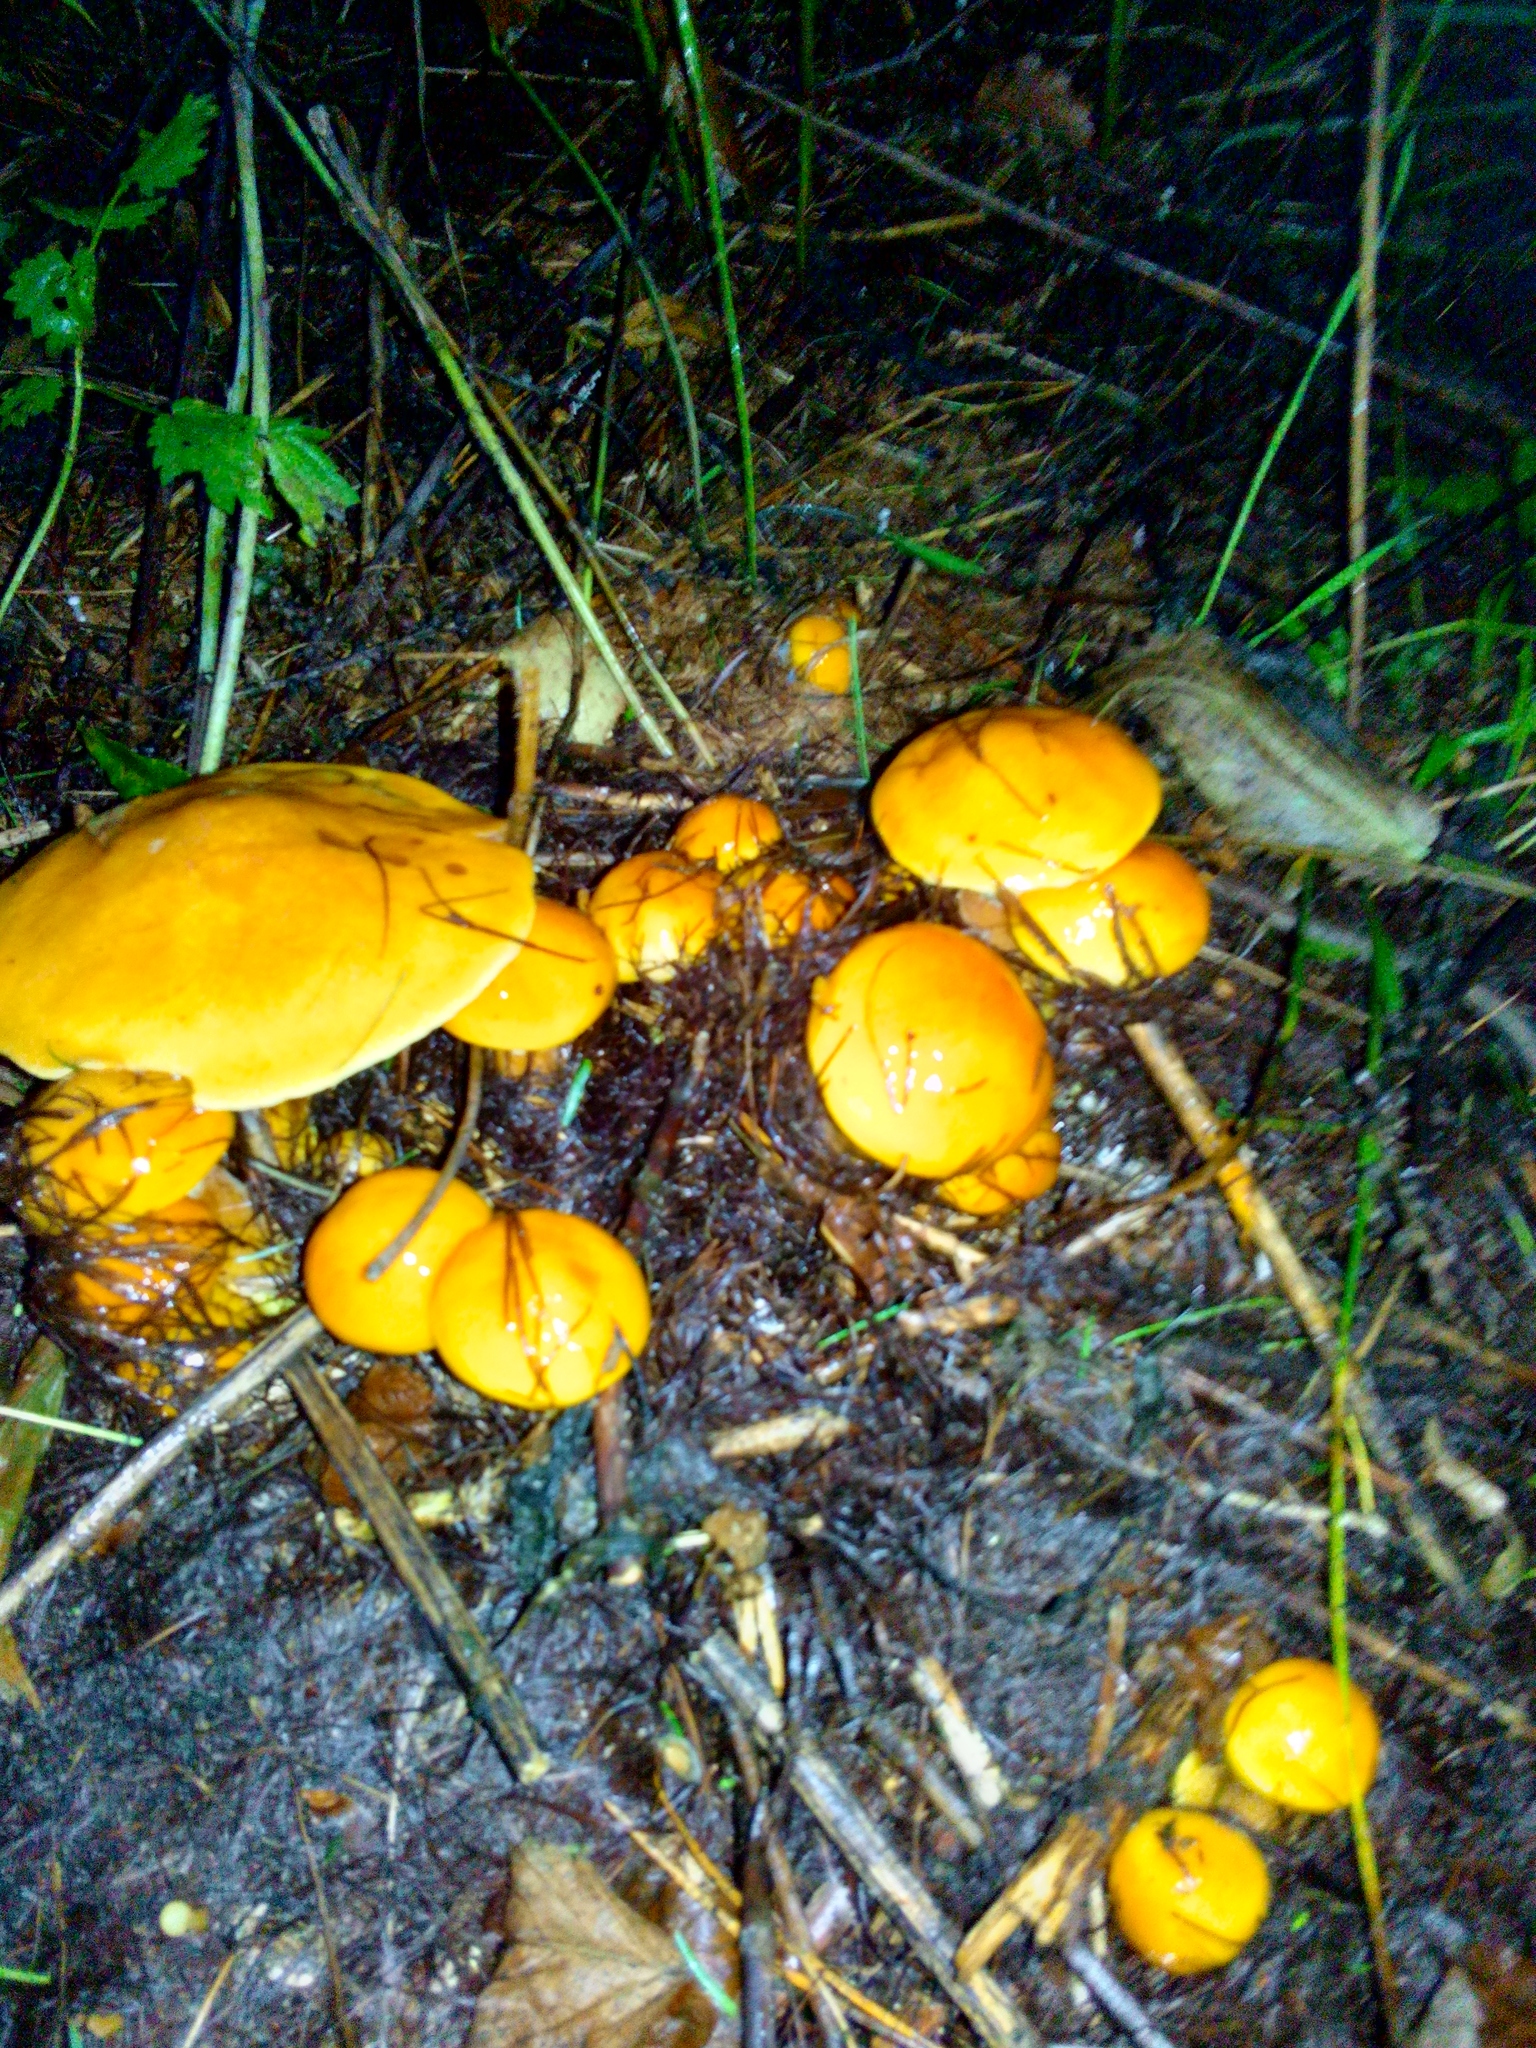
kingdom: Fungi
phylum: Basidiomycota
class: Agaricomycetes
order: Boletales
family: Suillaceae
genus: Suillus
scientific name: Suillus grevillei
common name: Larch bolete
